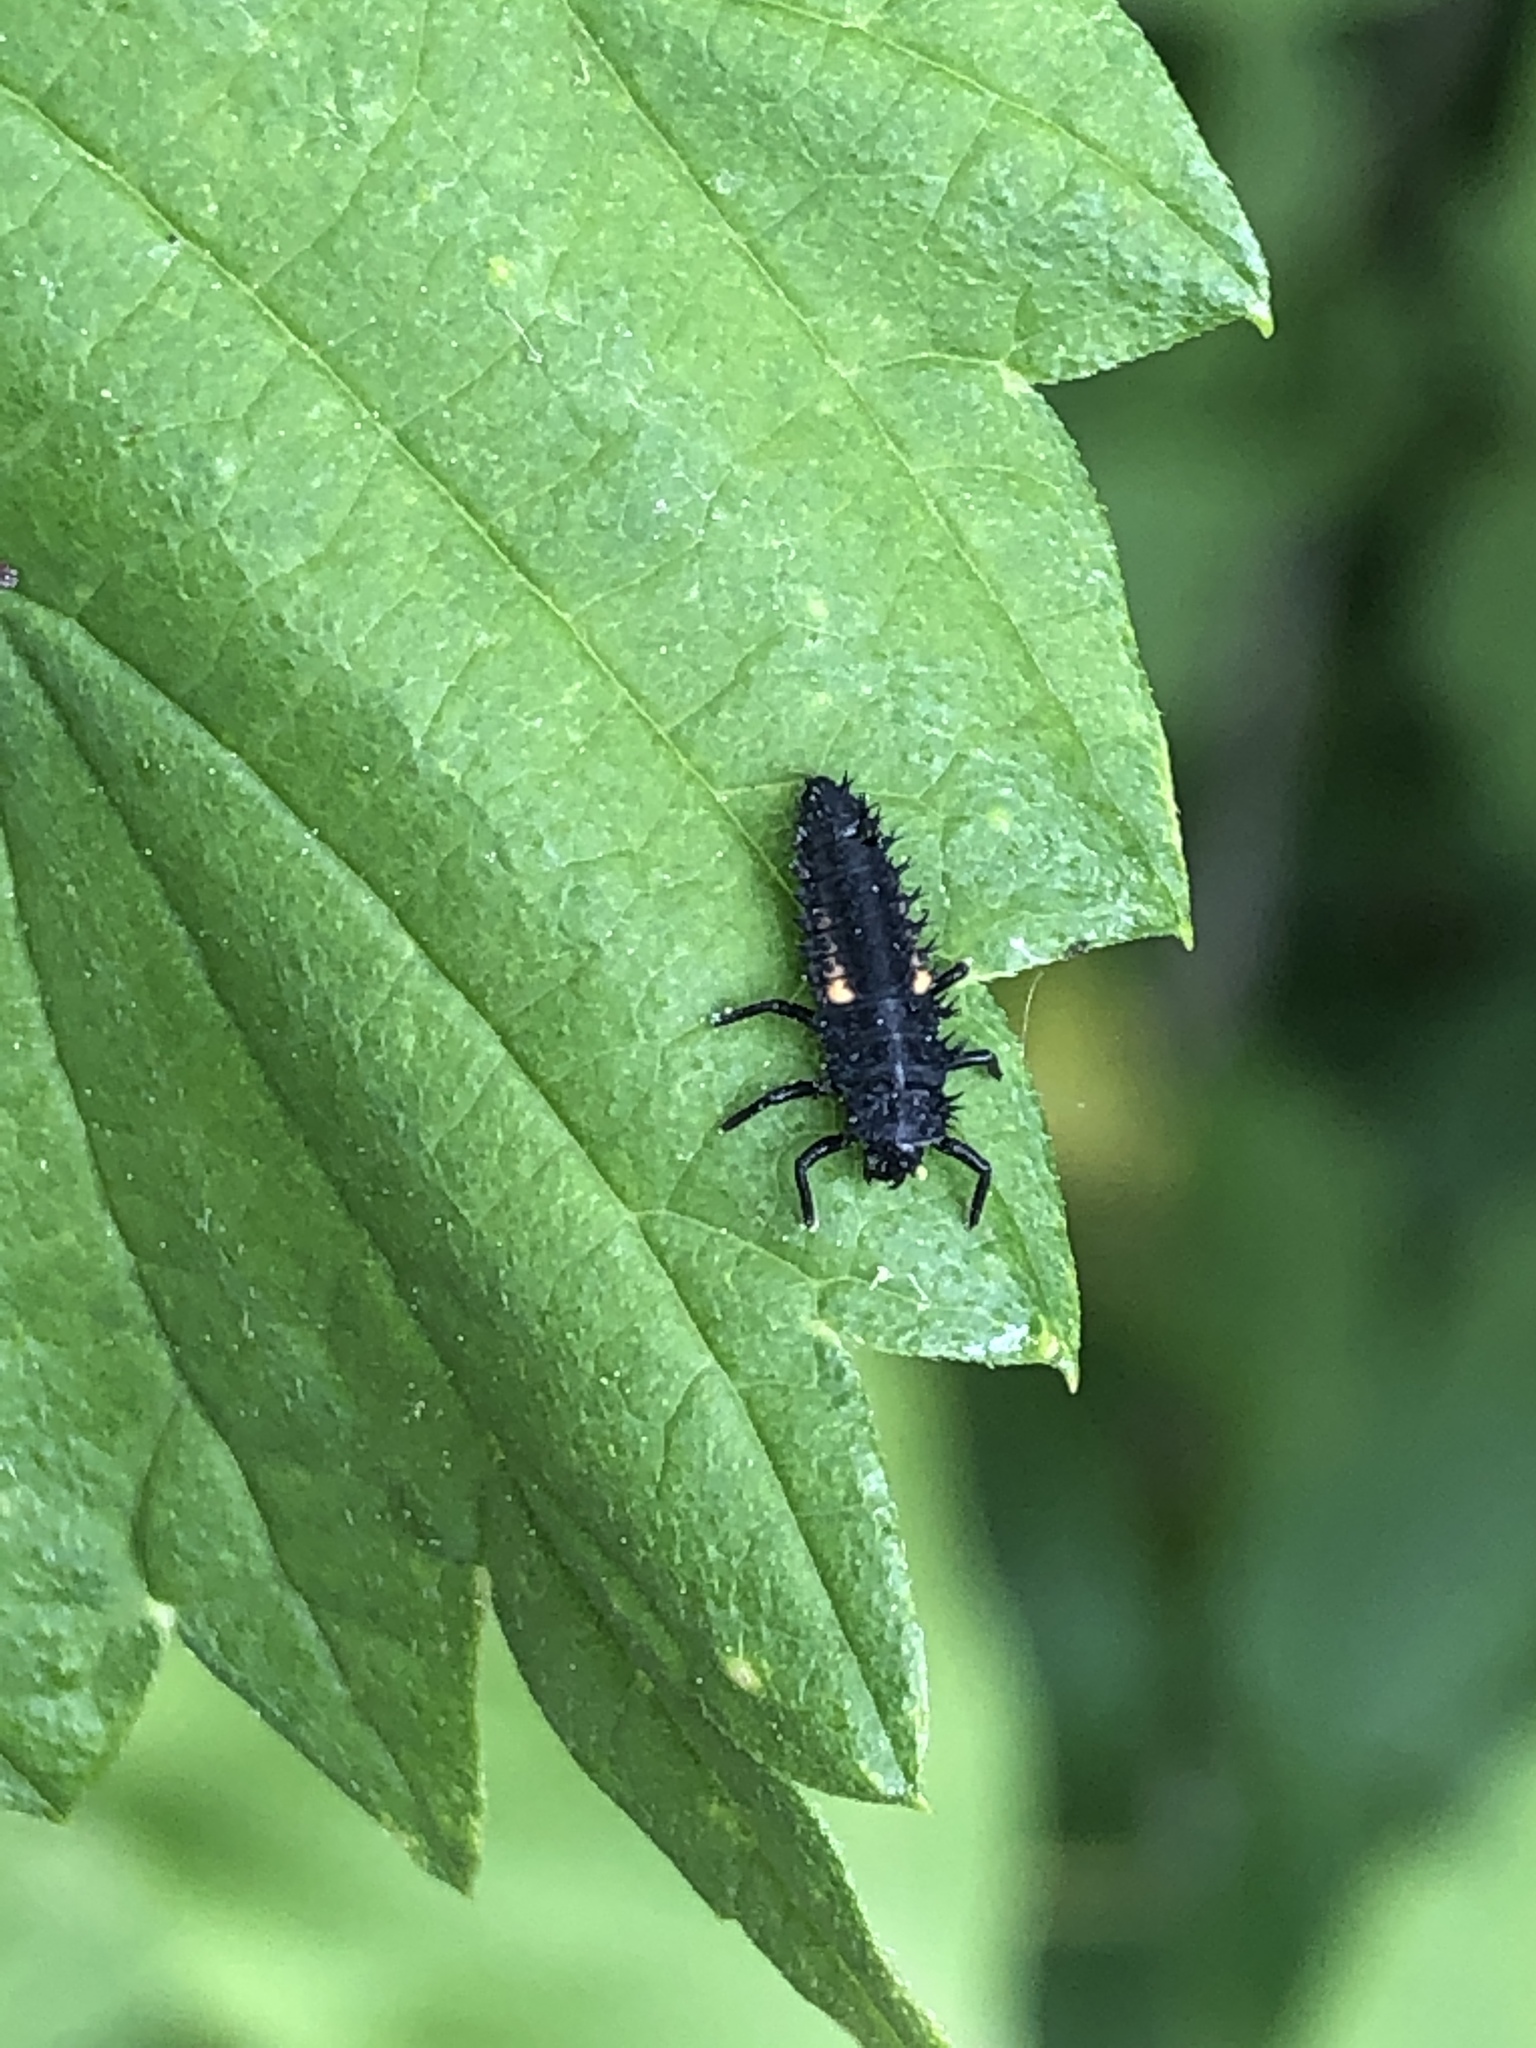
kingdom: Animalia
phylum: Arthropoda
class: Insecta
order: Coleoptera
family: Coccinellidae
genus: Harmonia
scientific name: Harmonia axyridis
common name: Harlequin ladybird
